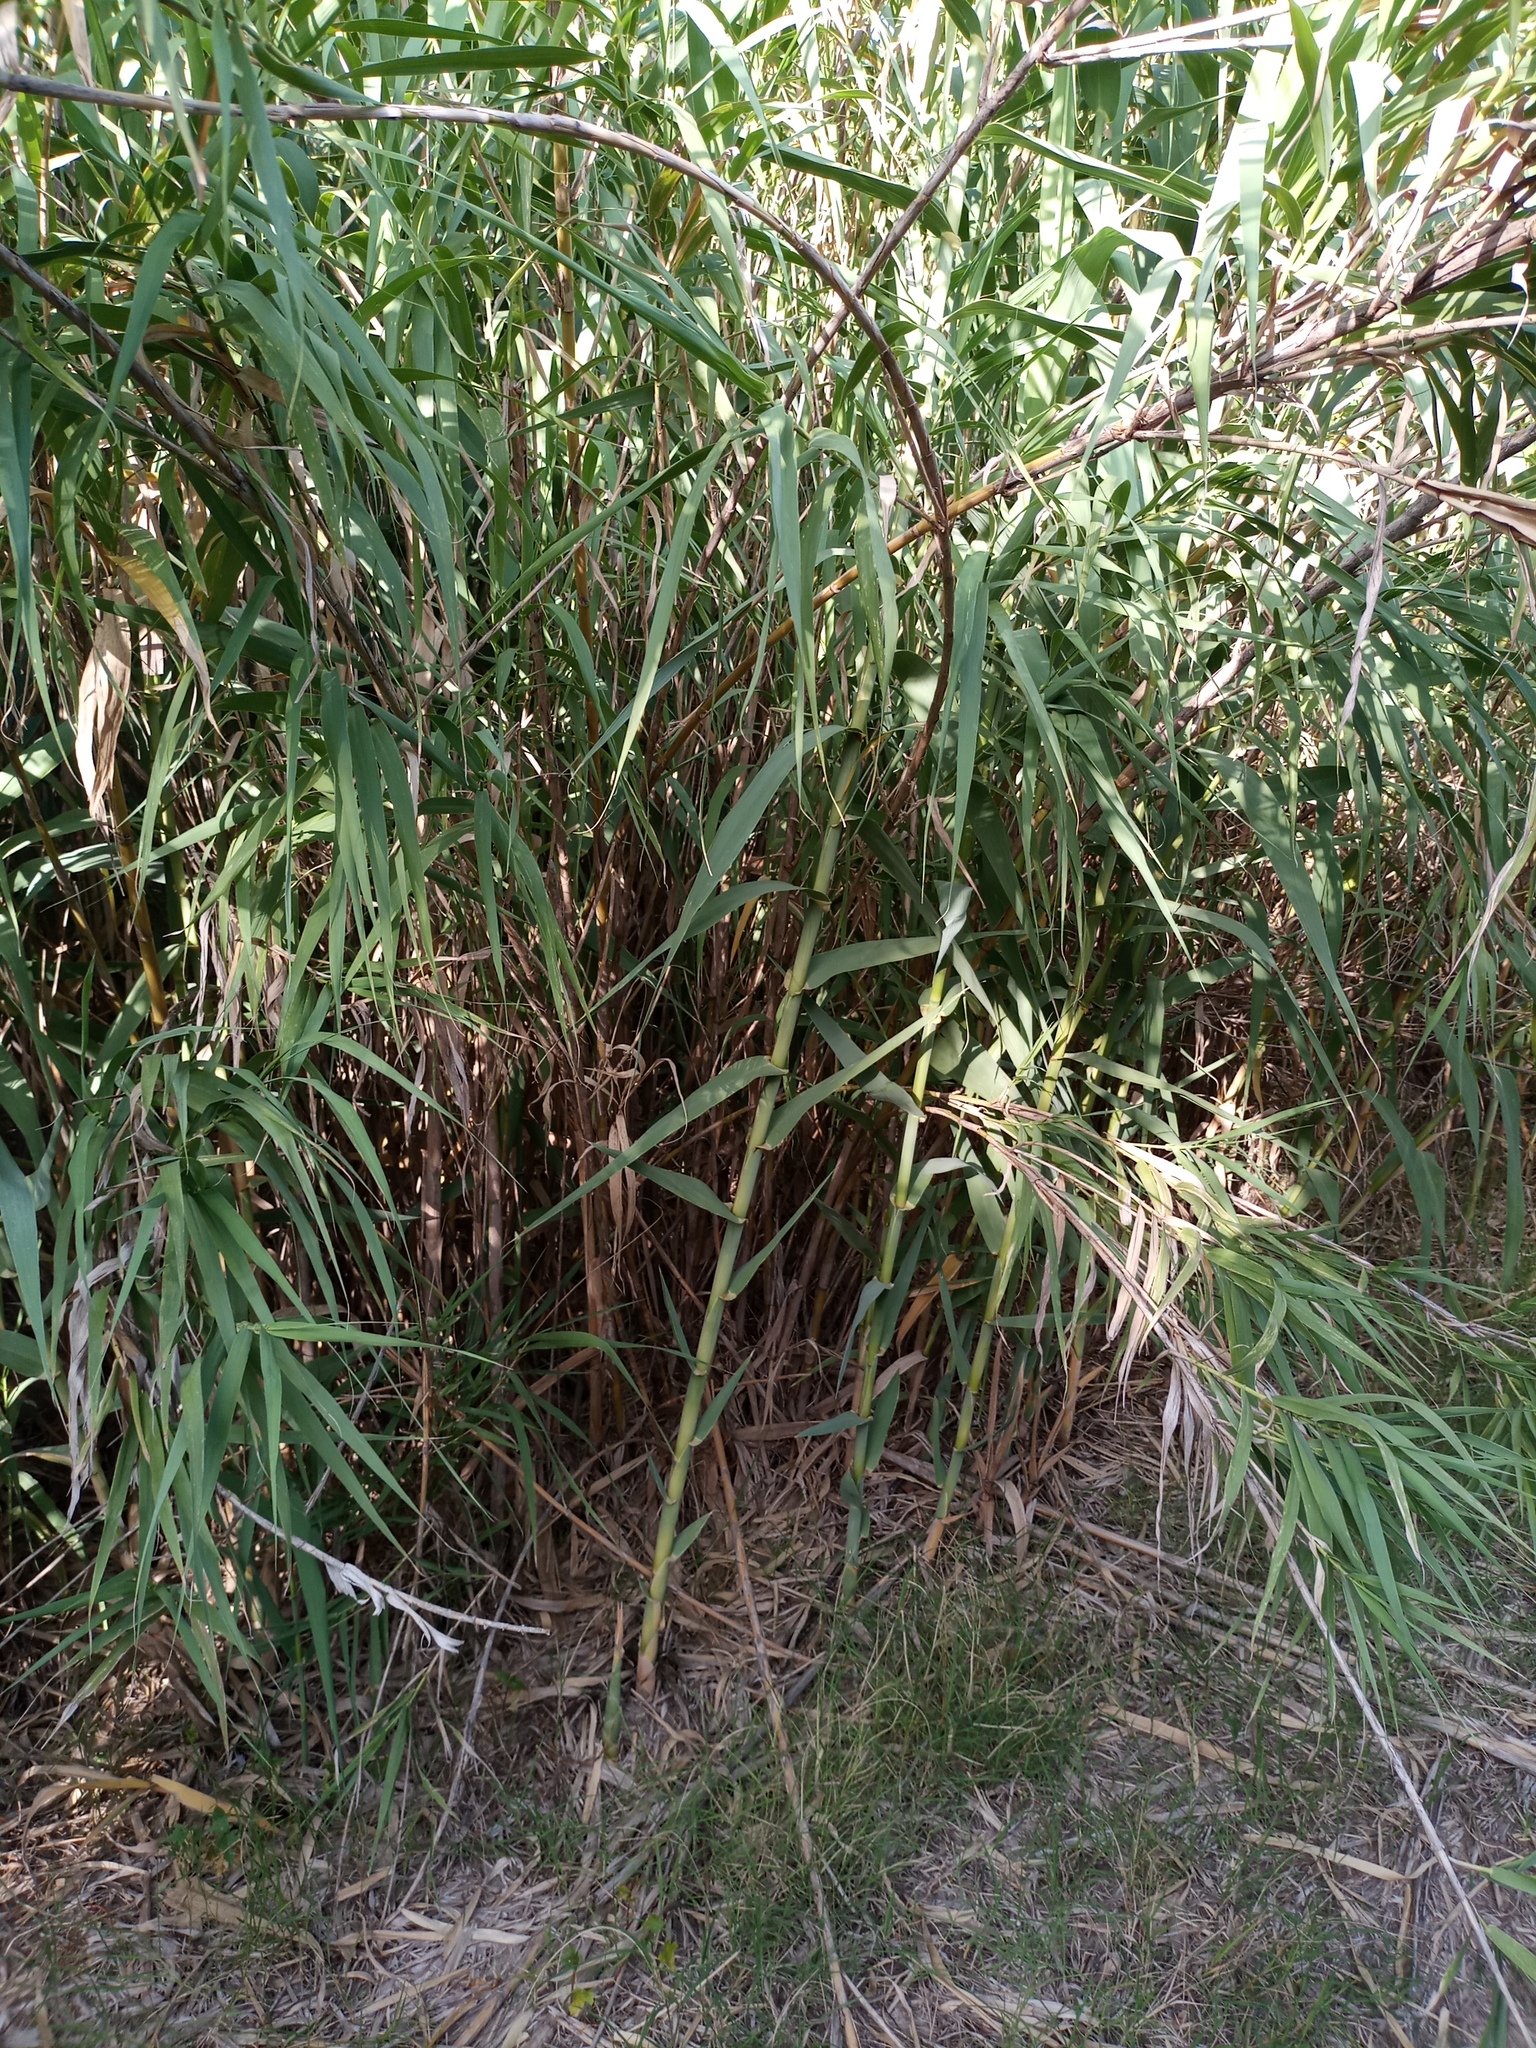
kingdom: Plantae
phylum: Tracheophyta
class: Liliopsida
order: Poales
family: Poaceae
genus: Arundo
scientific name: Arundo donax
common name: Giant reed
